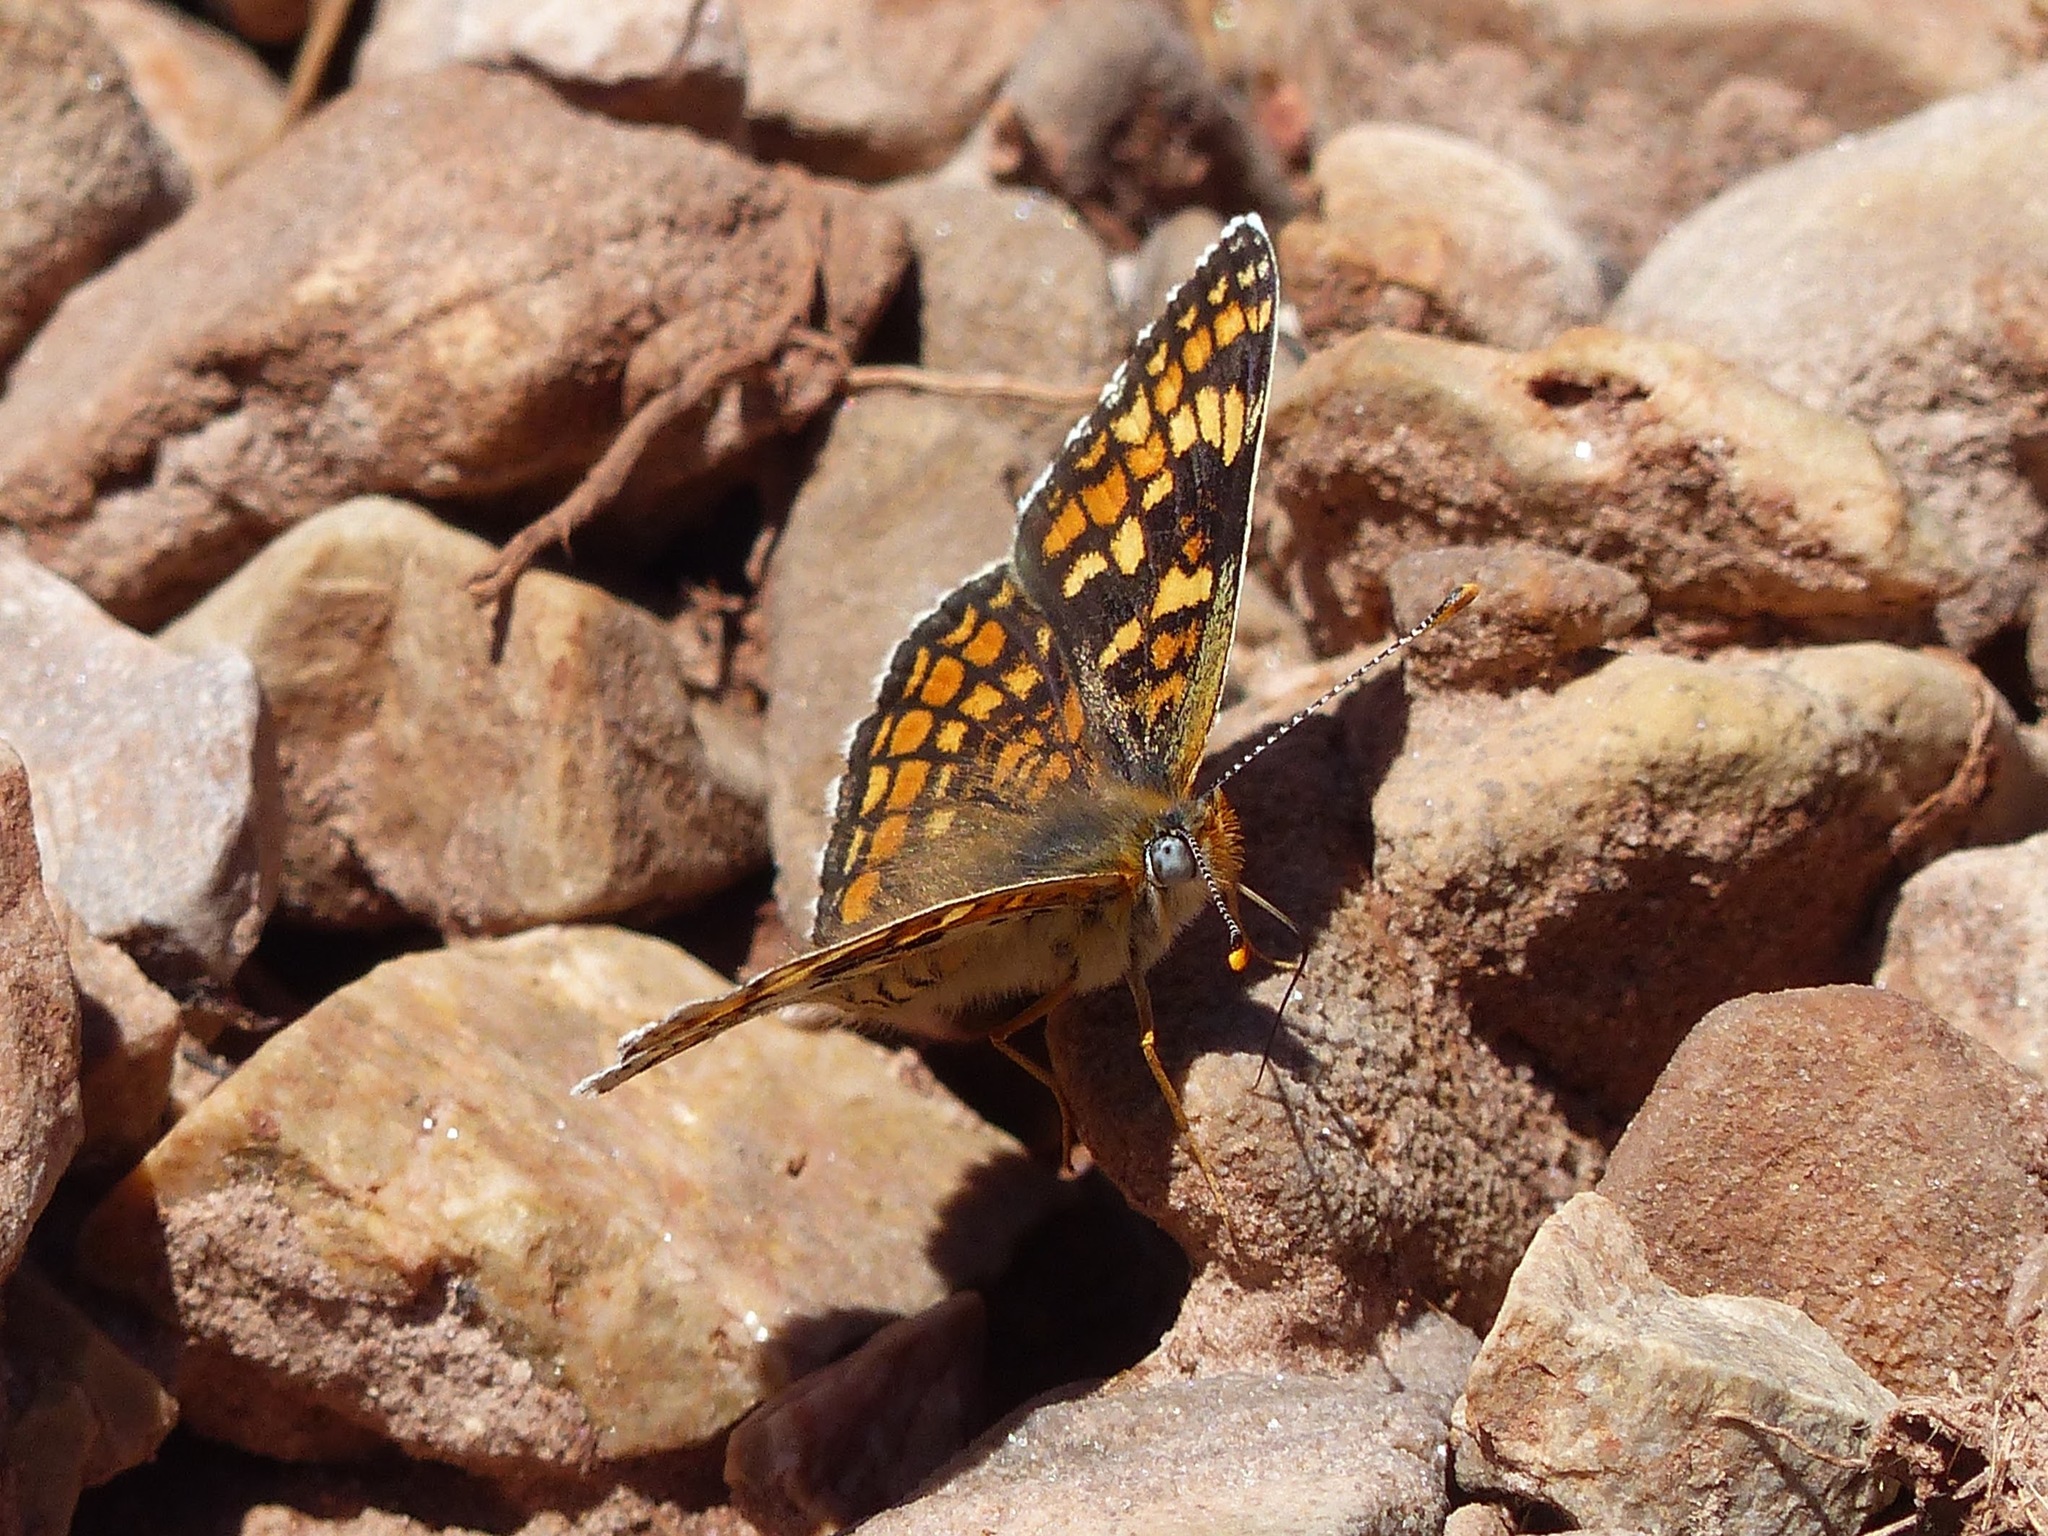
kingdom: Animalia
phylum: Arthropoda
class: Insecta
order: Lepidoptera
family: Nymphalidae
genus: Melitaea
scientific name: Melitaea phoebe
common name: Knapweed fritillary
